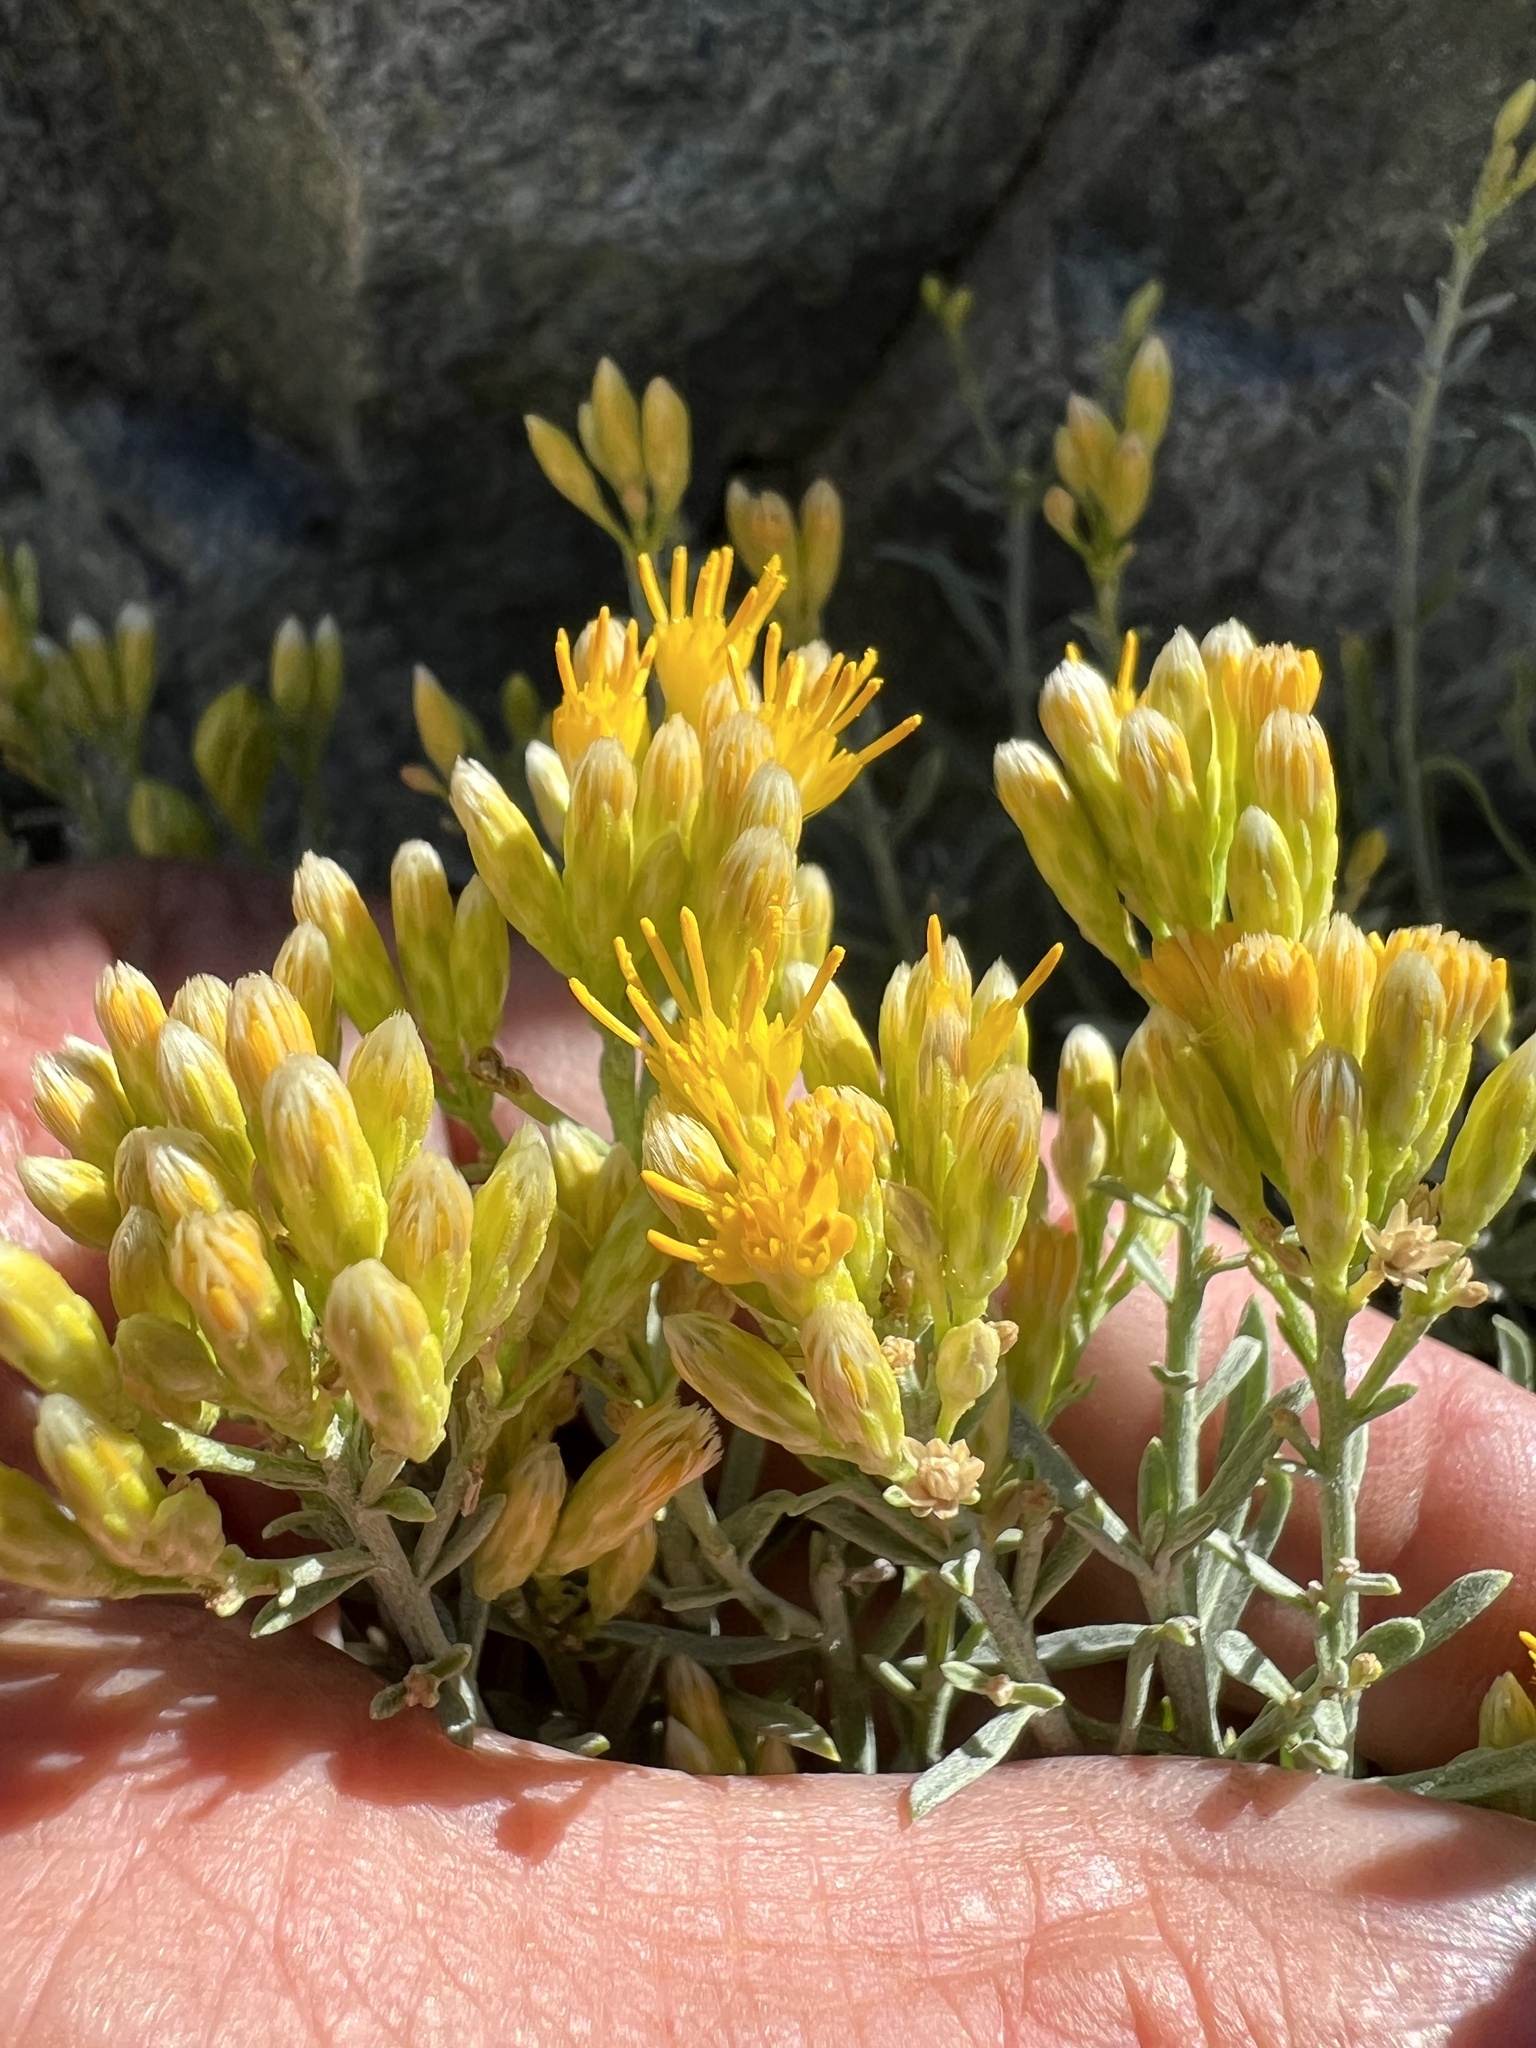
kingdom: Plantae
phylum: Tracheophyta
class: Magnoliopsida
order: Asterales
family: Asteraceae
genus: Ericameria
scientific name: Ericameria viscosa
